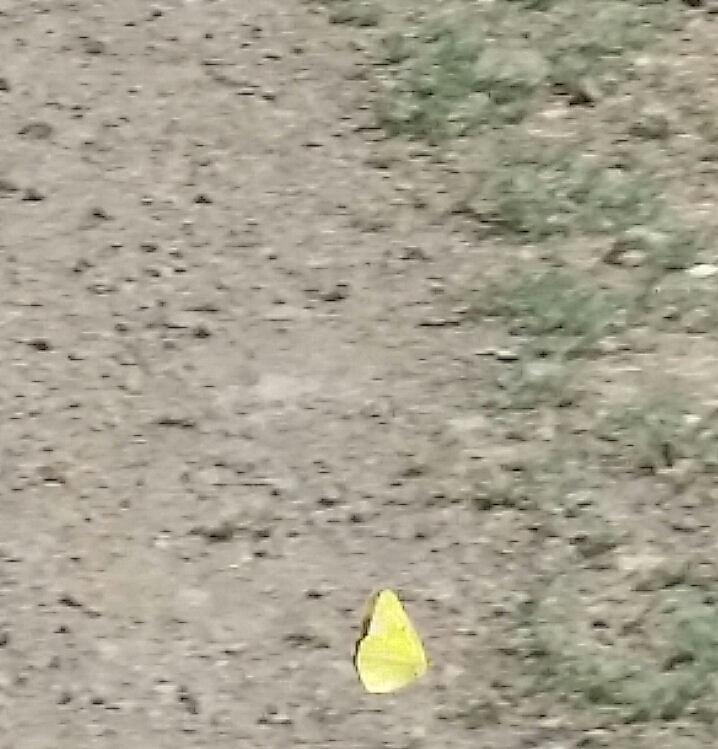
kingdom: Animalia
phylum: Arthropoda
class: Insecta
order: Lepidoptera
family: Pieridae
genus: Colias
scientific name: Colias eurytheme
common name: Alfalfa butterfly
